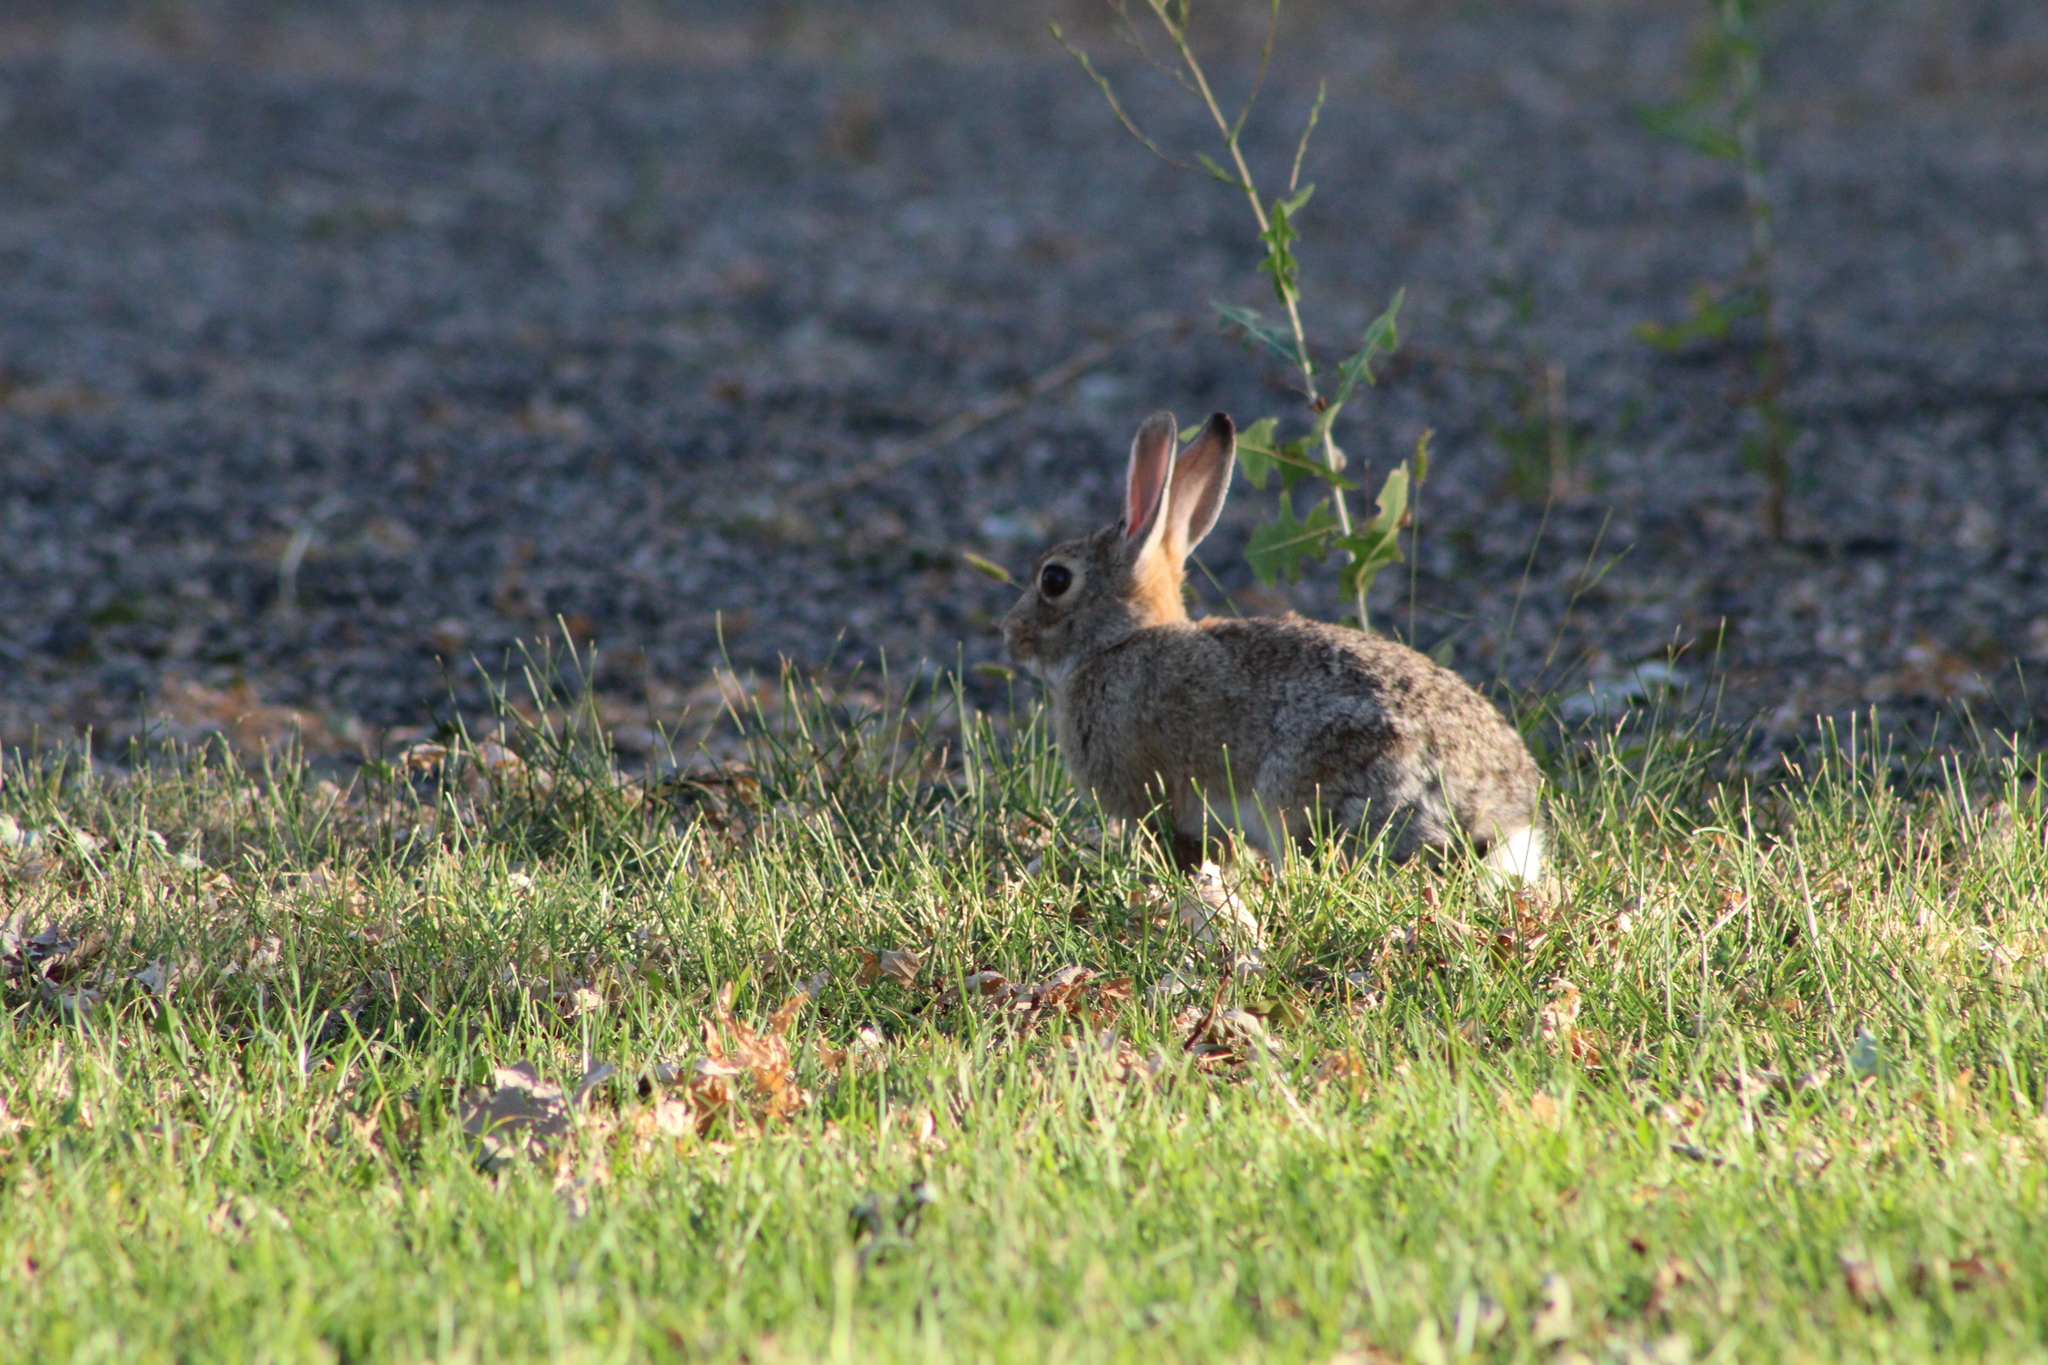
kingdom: Animalia
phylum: Chordata
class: Mammalia
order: Lagomorpha
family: Leporidae
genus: Sylvilagus
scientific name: Sylvilagus audubonii
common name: Desert cottontail
